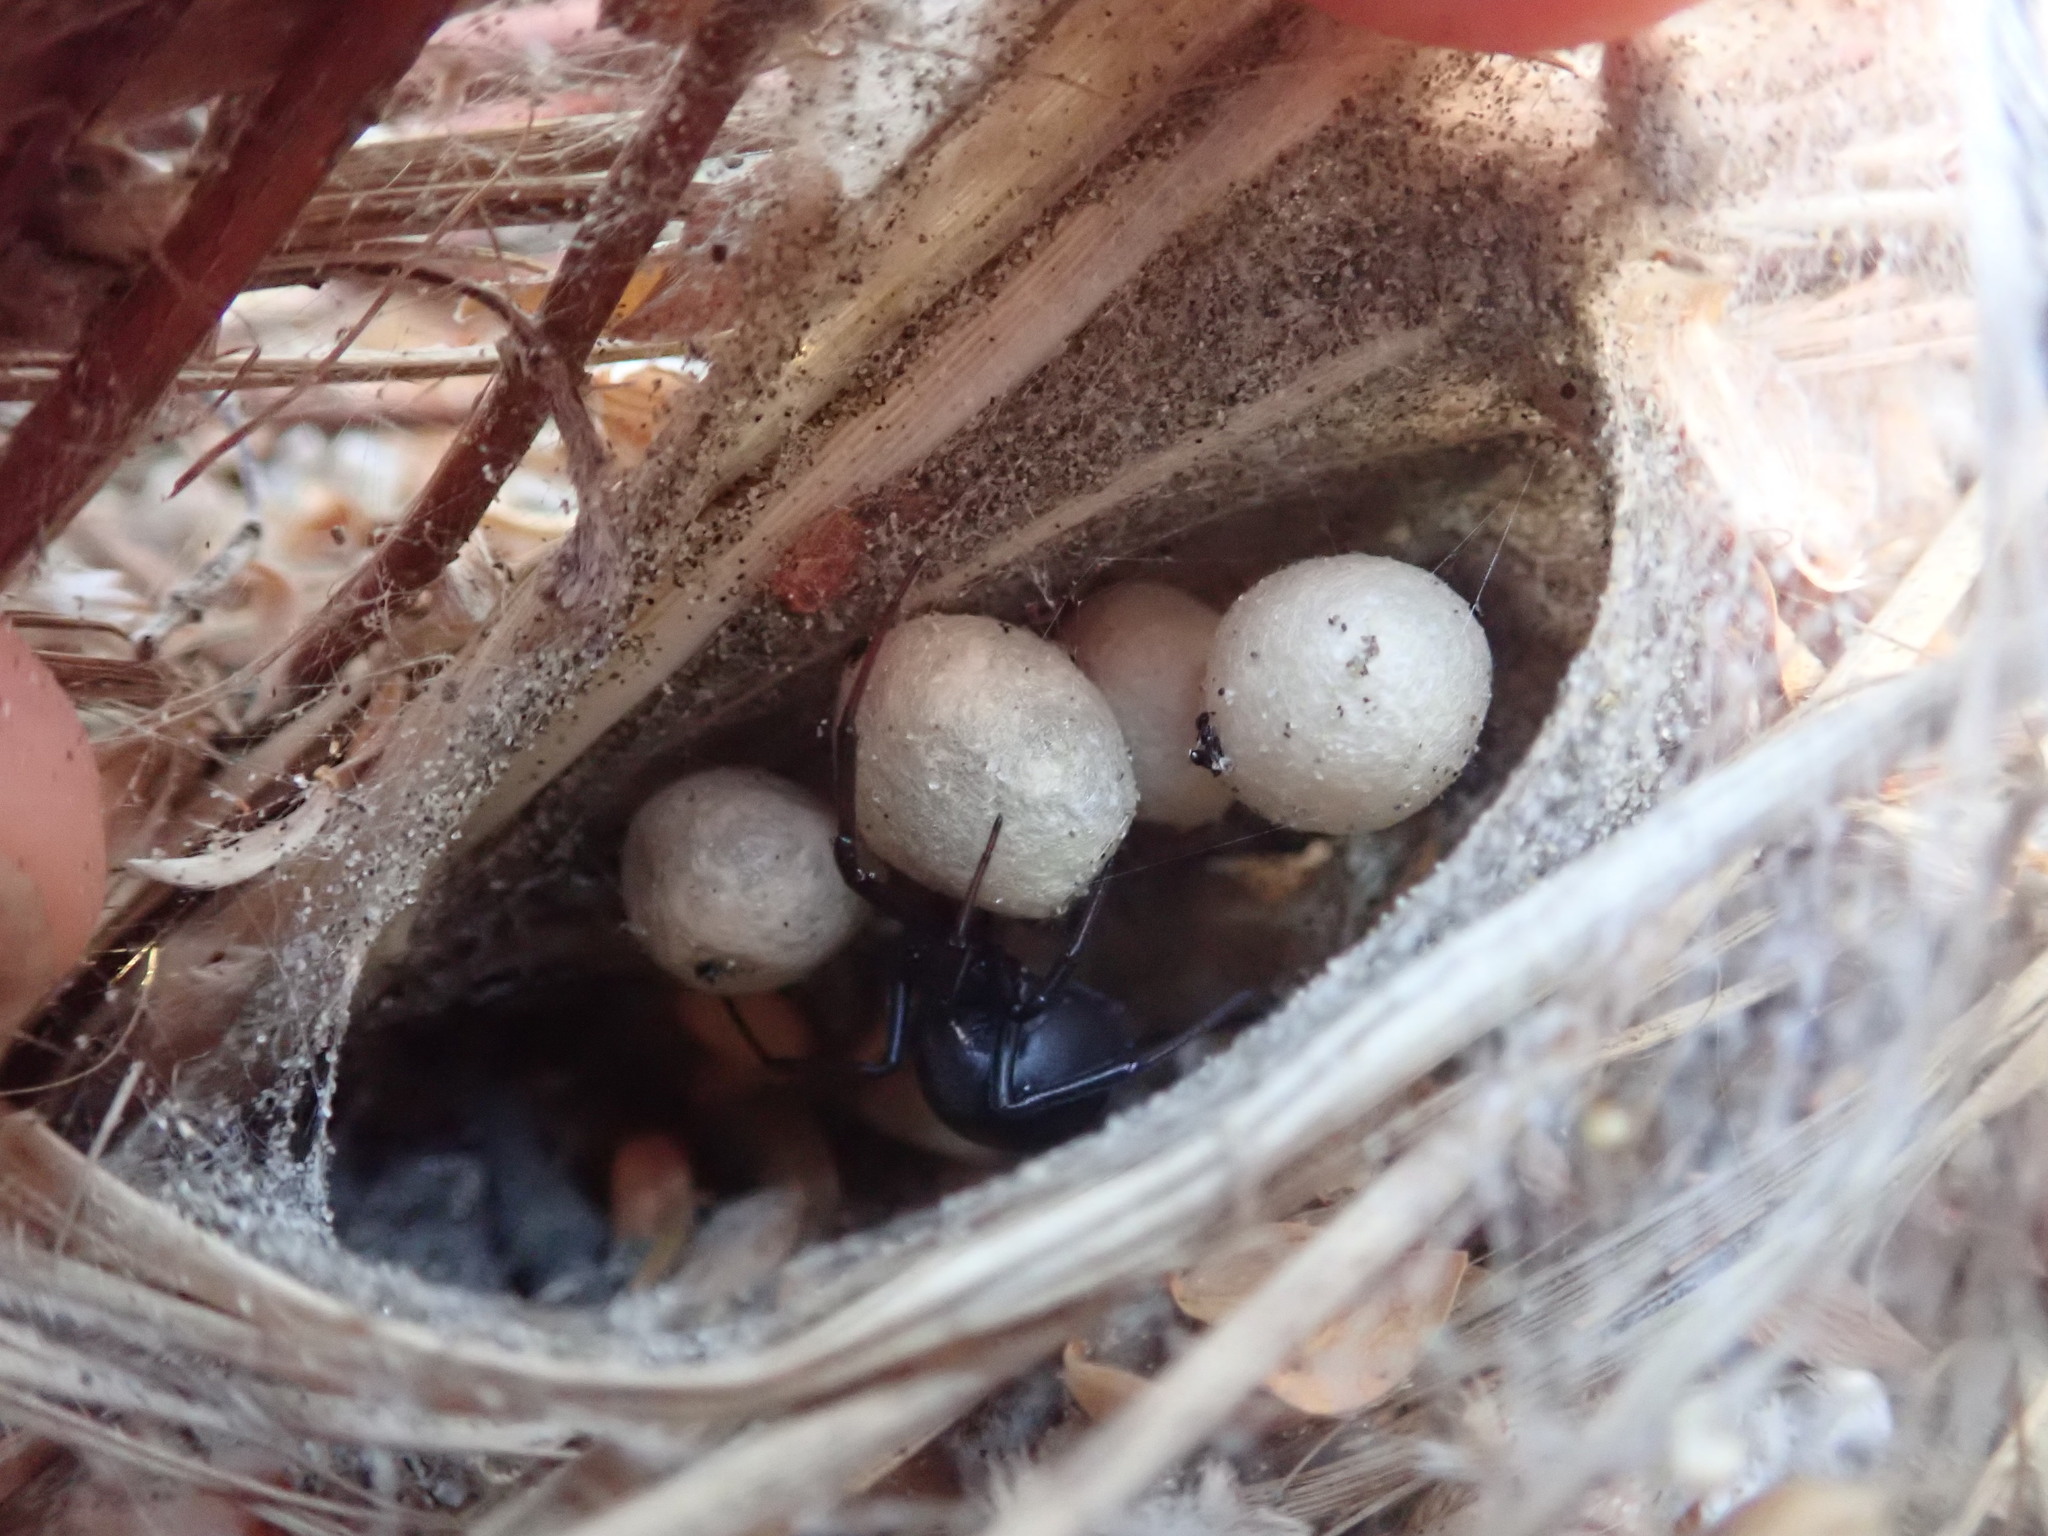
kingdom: Animalia
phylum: Arthropoda
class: Arachnida
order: Araneae
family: Theridiidae
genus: Latrodectus
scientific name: Latrodectus katipo
